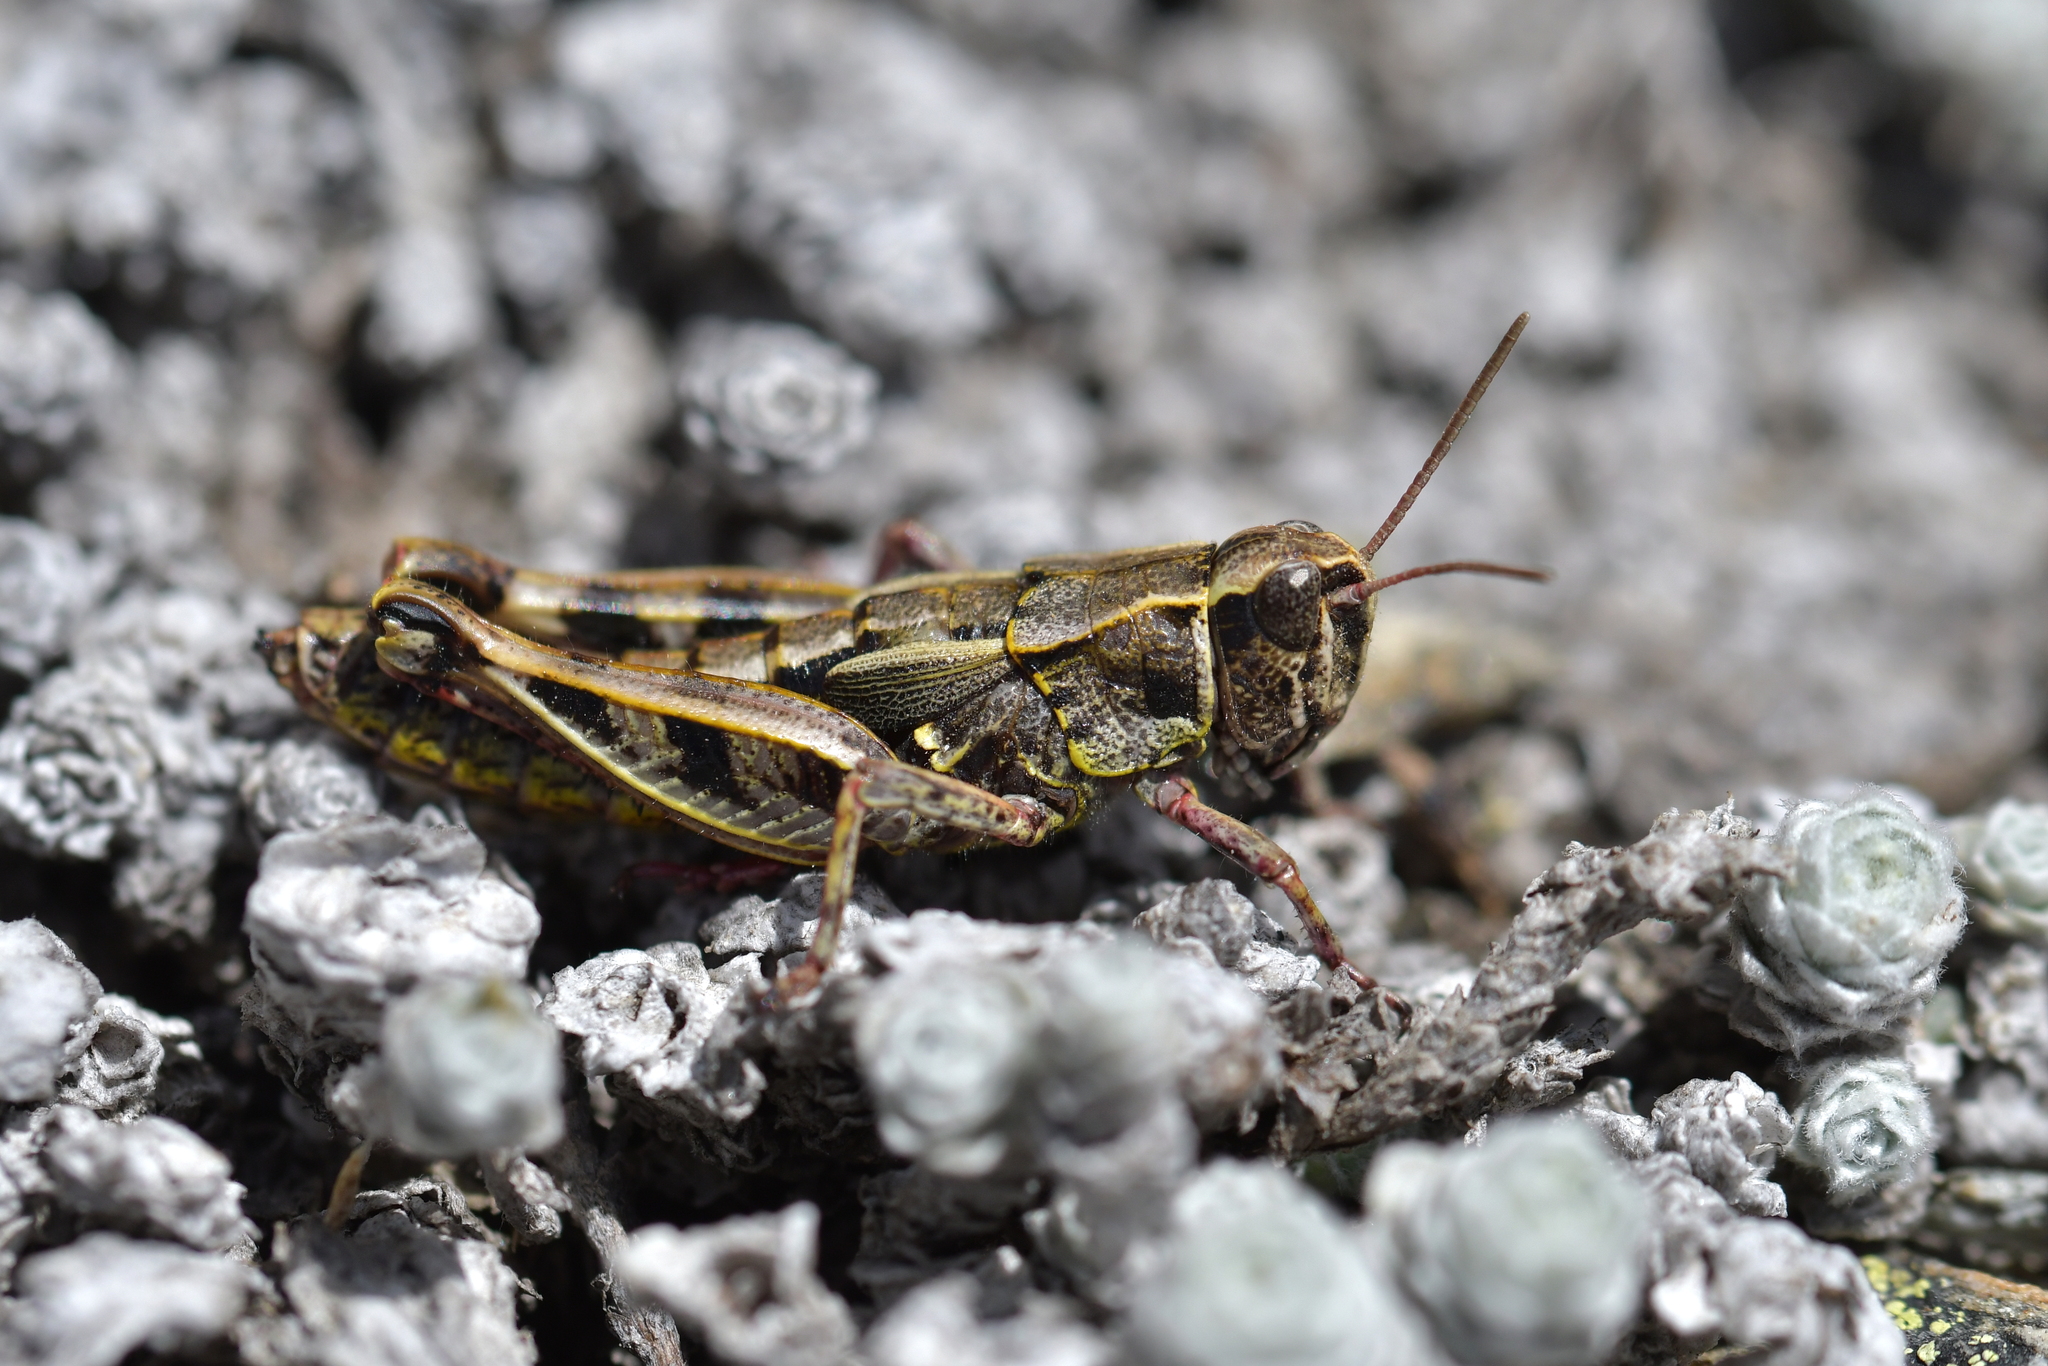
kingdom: Animalia
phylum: Arthropoda
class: Insecta
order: Orthoptera
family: Acrididae
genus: Sigaus
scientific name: Sigaus australis
